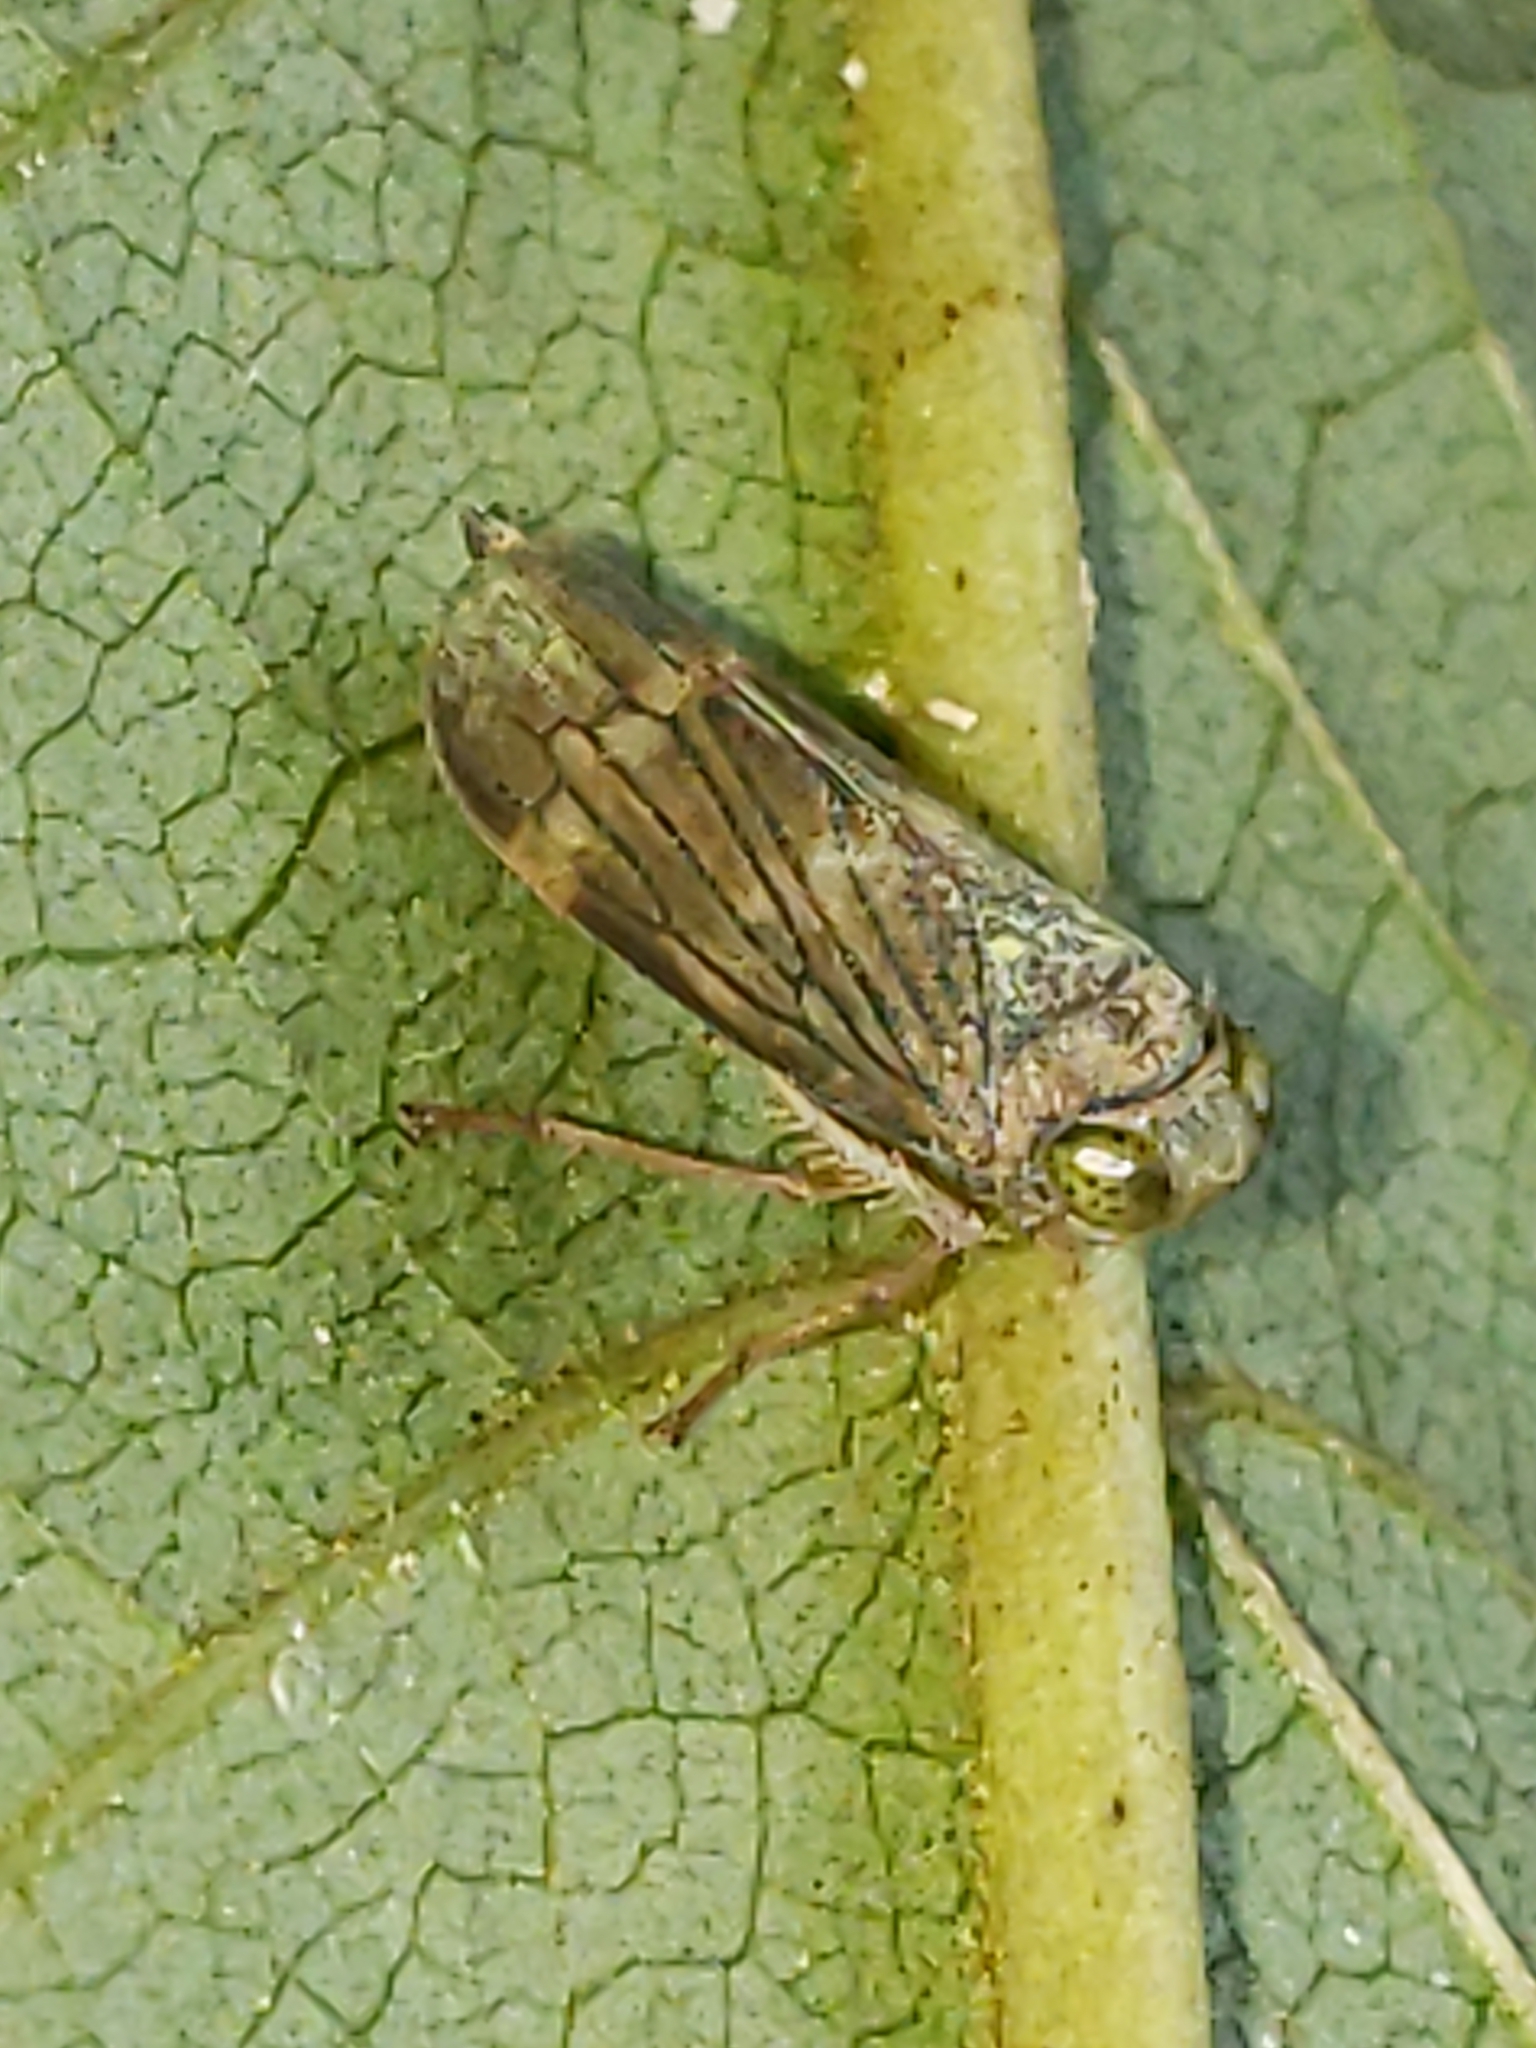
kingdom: Animalia
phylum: Arthropoda
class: Insecta
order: Hemiptera
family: Cicadellidae
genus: Jikradia
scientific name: Jikradia olitoria
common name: Coppery leafhopper
